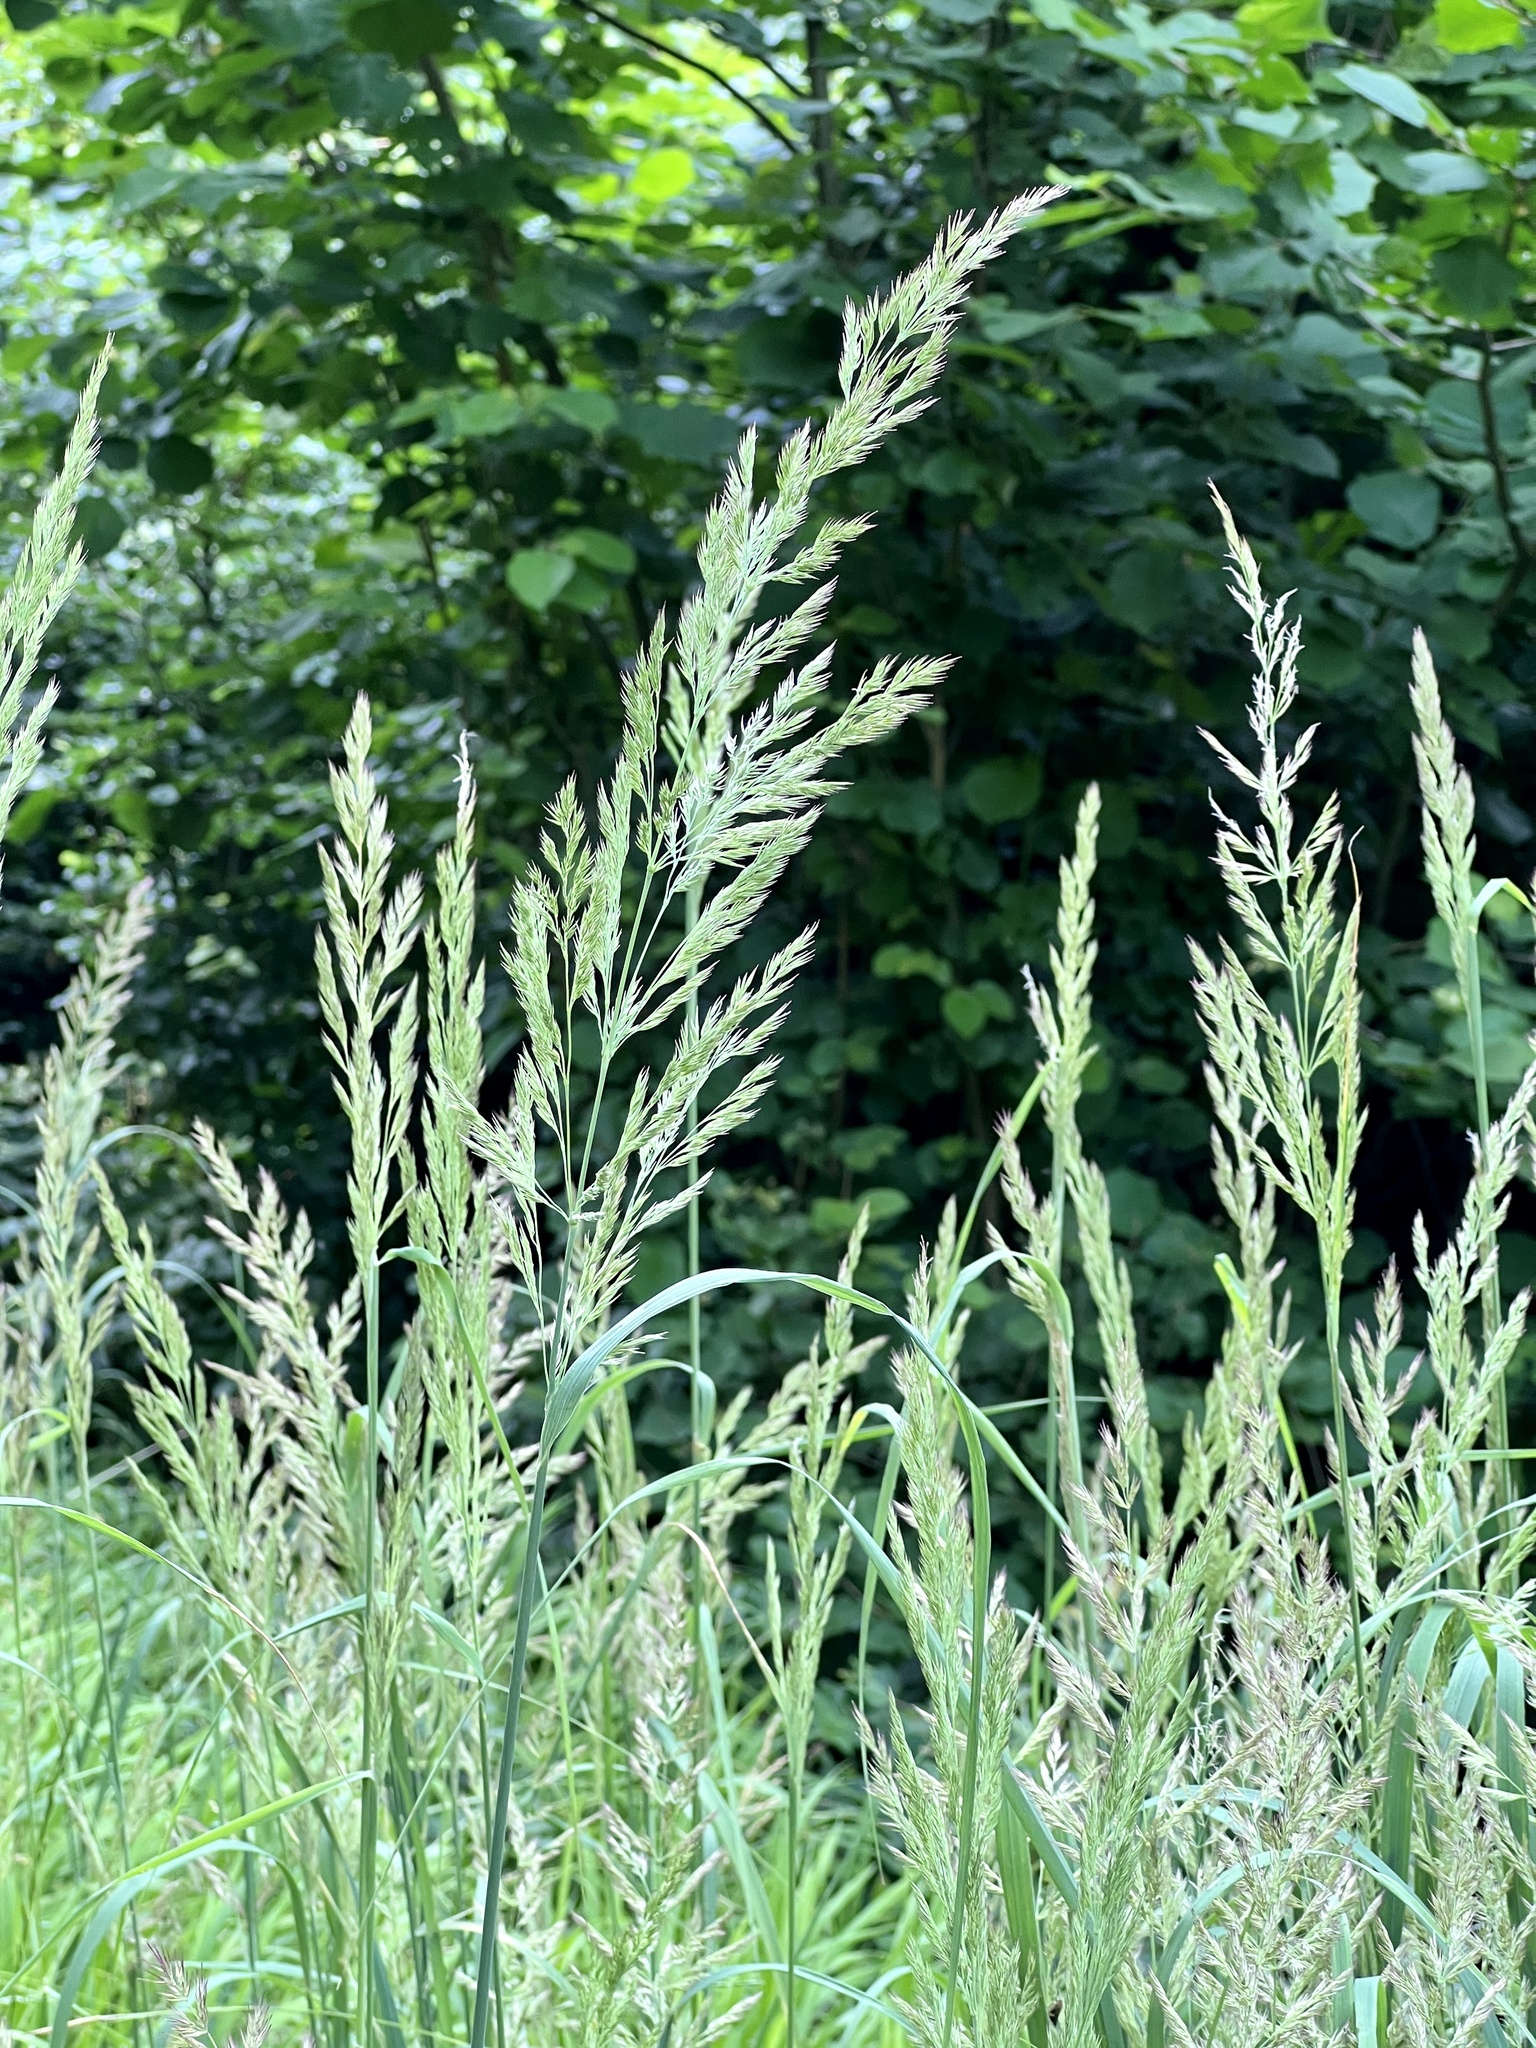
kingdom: Plantae
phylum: Tracheophyta
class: Liliopsida
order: Poales
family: Poaceae
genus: Calamagrostis
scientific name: Calamagrostis epigejos
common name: Wood small-reed
